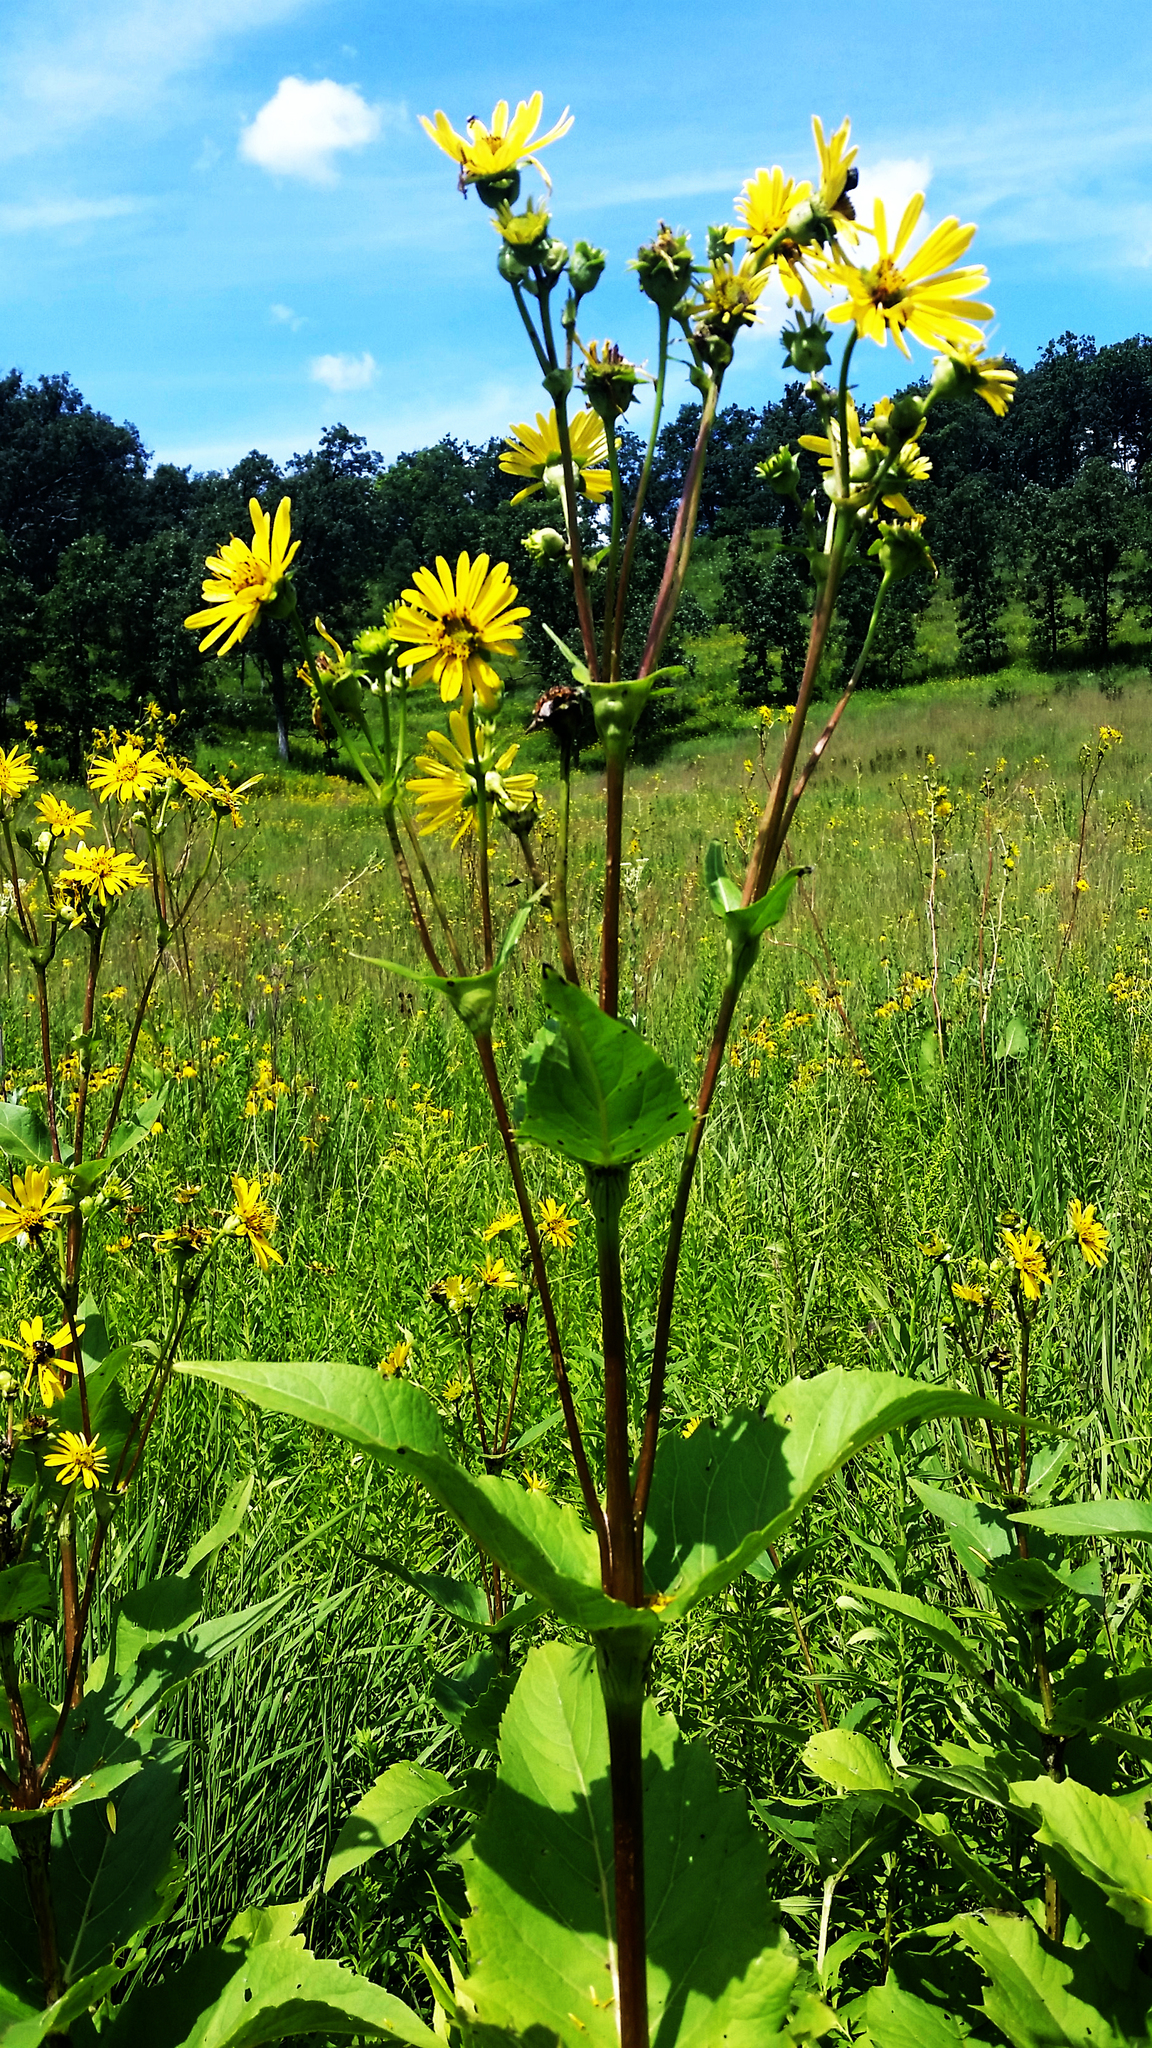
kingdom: Plantae
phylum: Tracheophyta
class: Magnoliopsida
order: Asterales
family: Asteraceae
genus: Silphium
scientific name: Silphium perfoliatum
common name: Cup-plant
